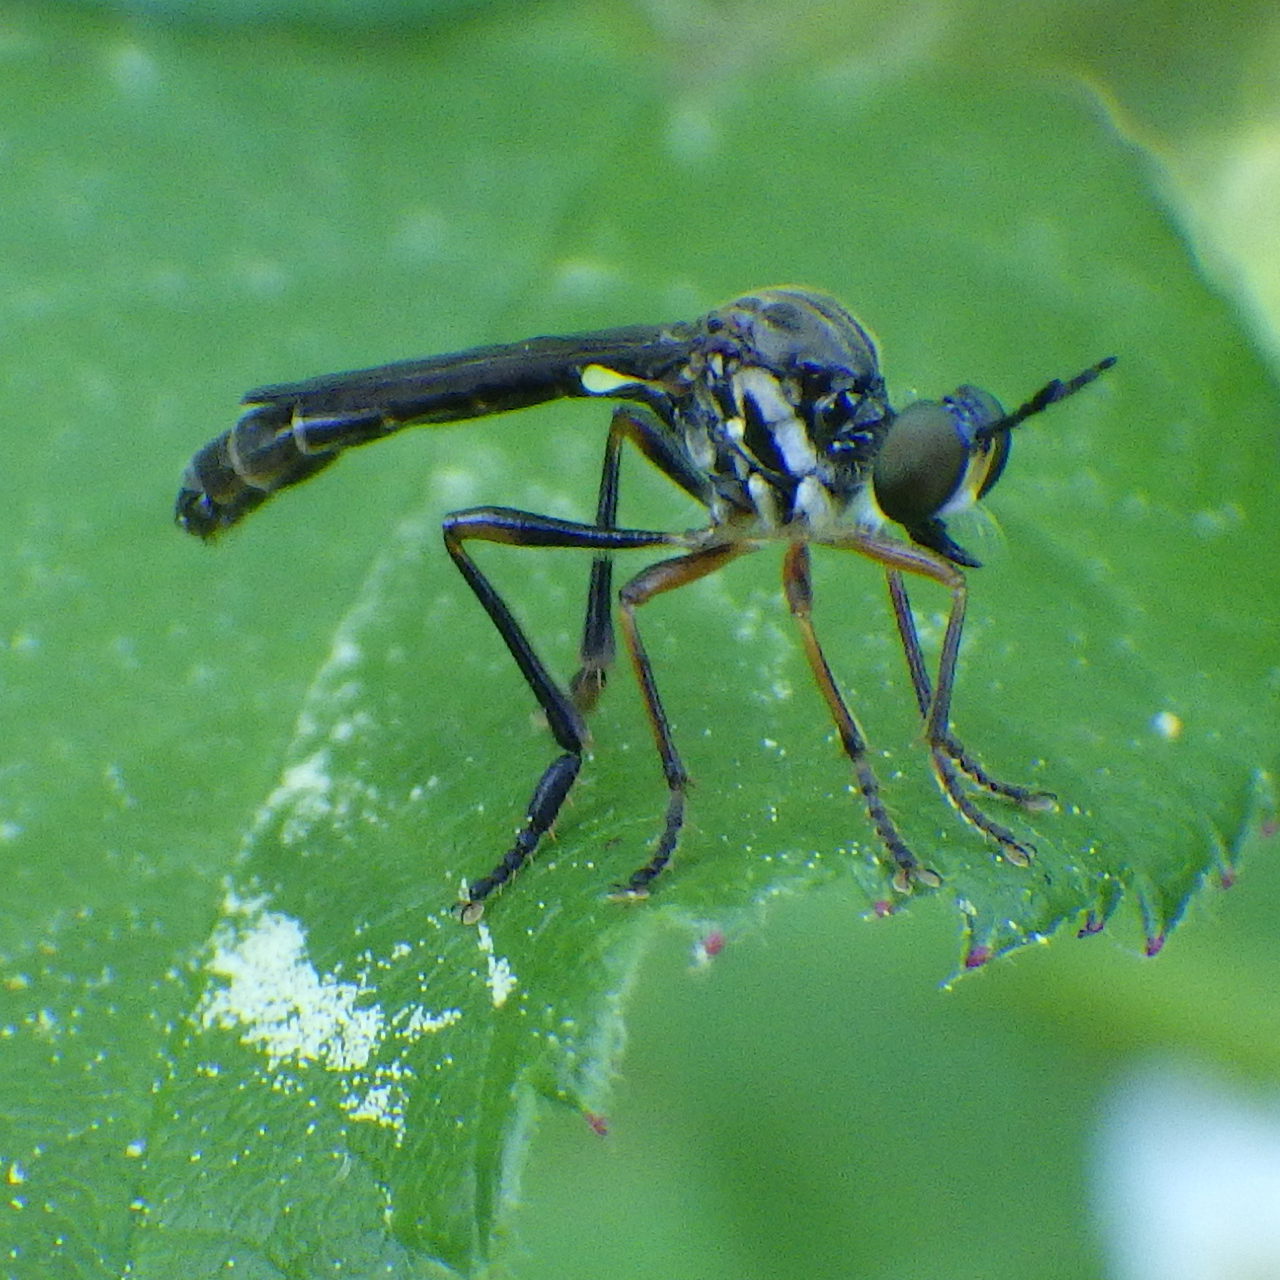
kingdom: Animalia
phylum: Arthropoda
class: Insecta
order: Diptera
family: Asilidae
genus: Dioctria
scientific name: Dioctria hyalipennis
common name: Stripe-legged robberfly
